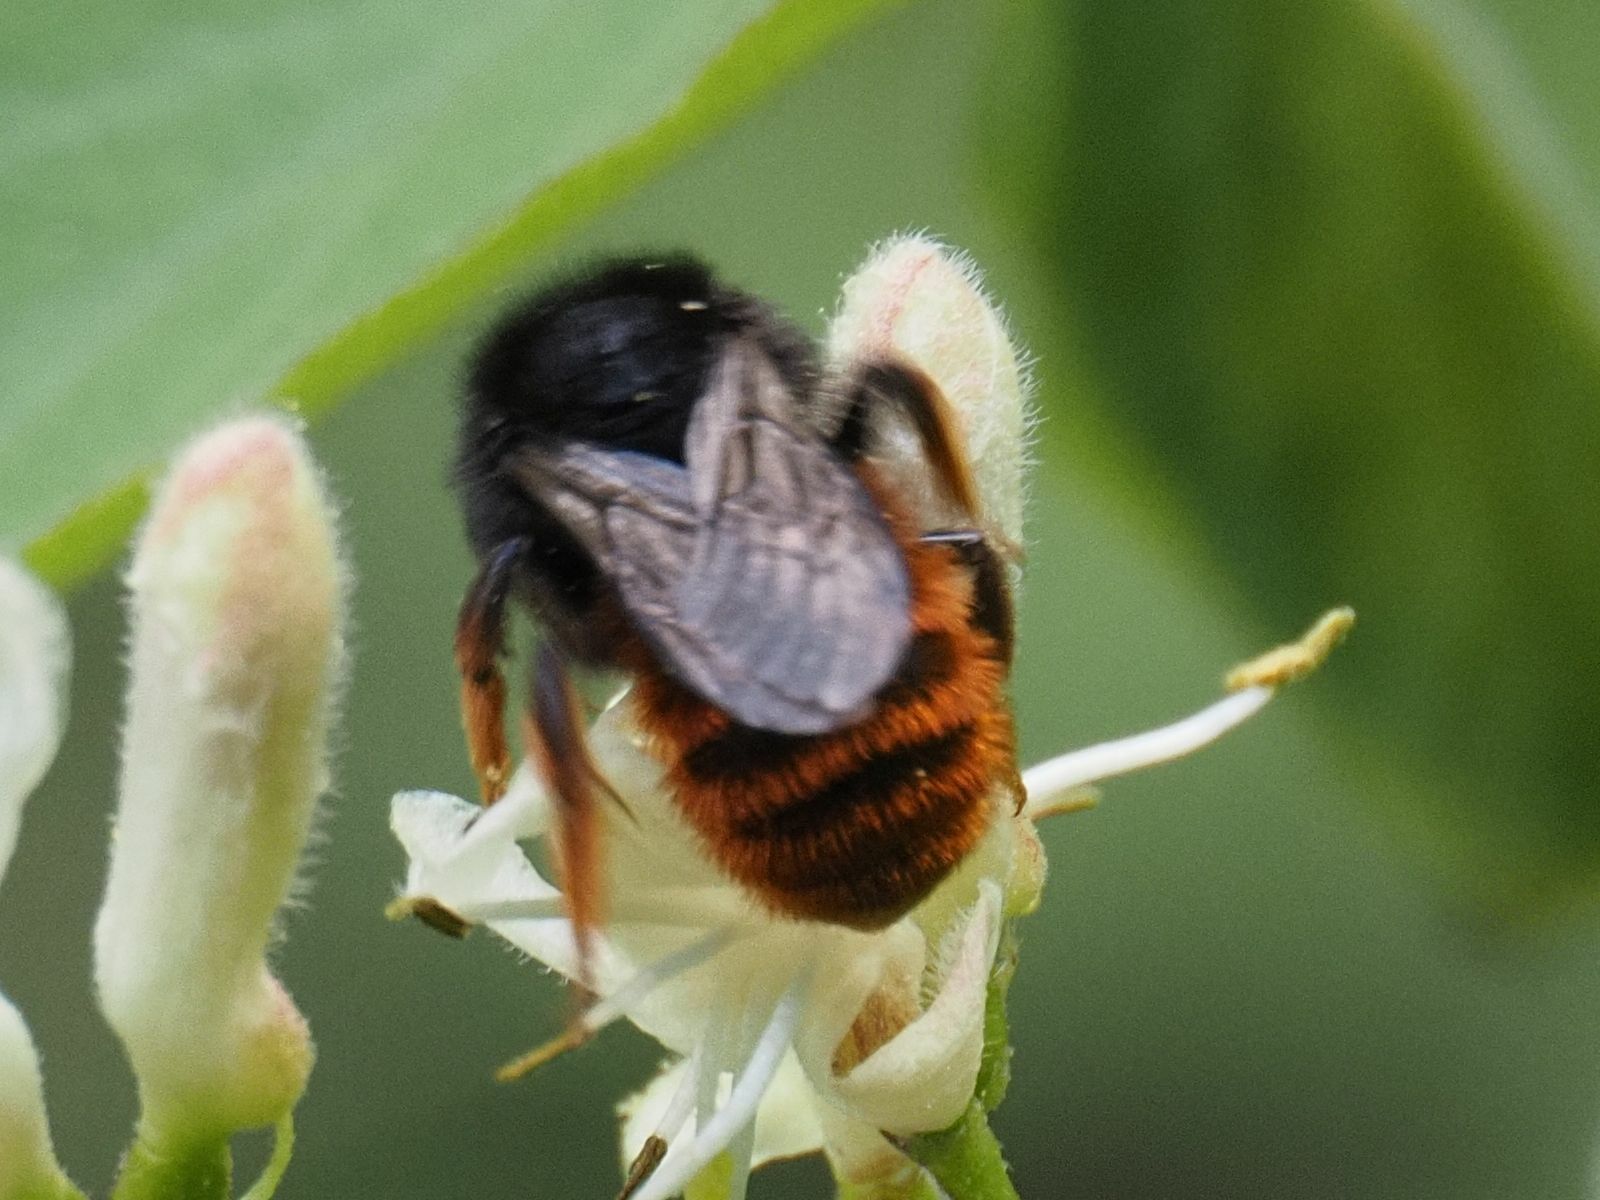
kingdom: Animalia
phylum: Arthropoda
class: Insecta
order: Hymenoptera
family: Megachilidae
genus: Osmia
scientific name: Osmia bicolor
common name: Red-tailed mason bee
